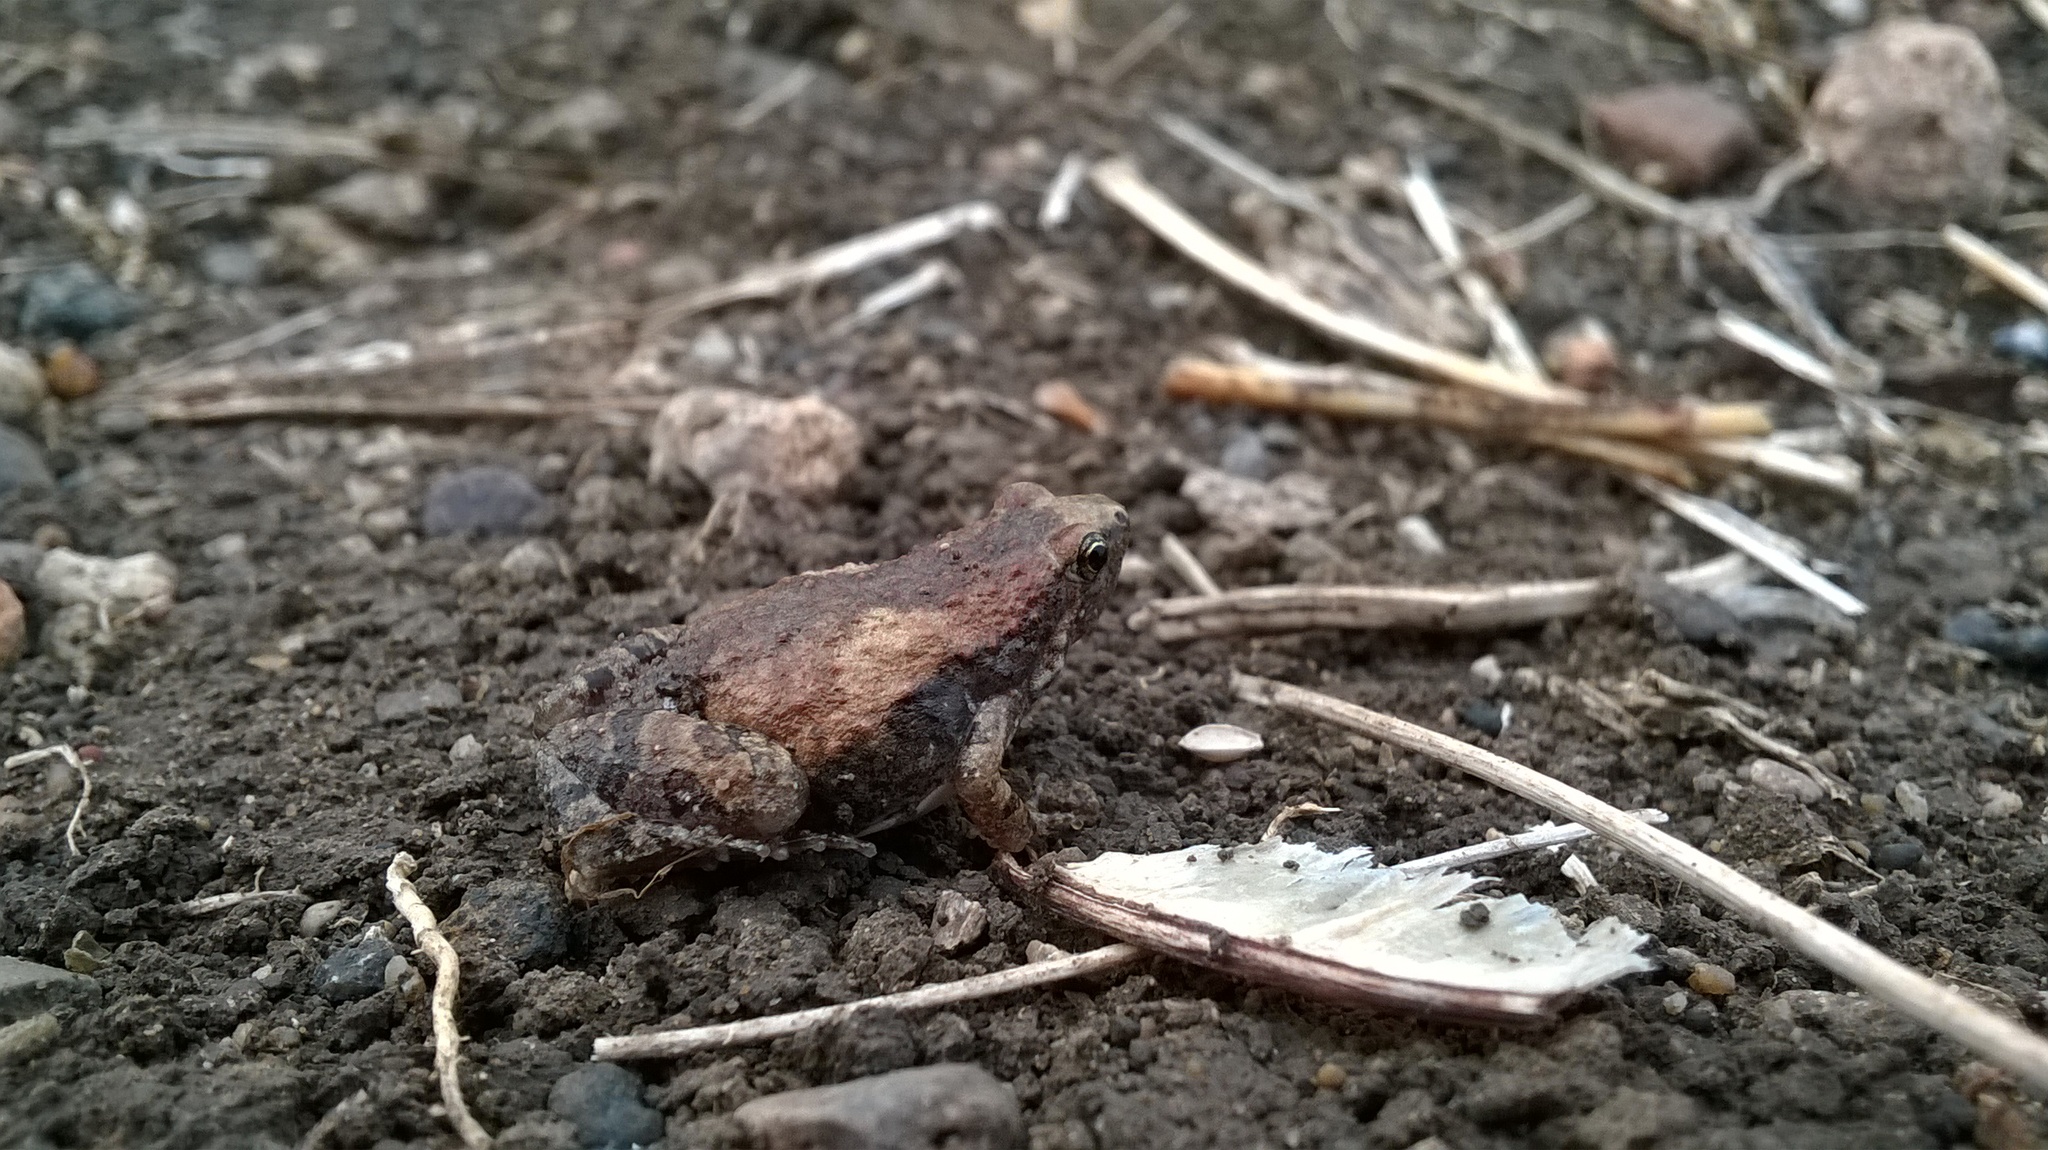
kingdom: Animalia
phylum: Chordata
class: Amphibia
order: Anura
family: Microhylidae
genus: Microhyla
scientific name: Microhyla ornata
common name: Ant frog
